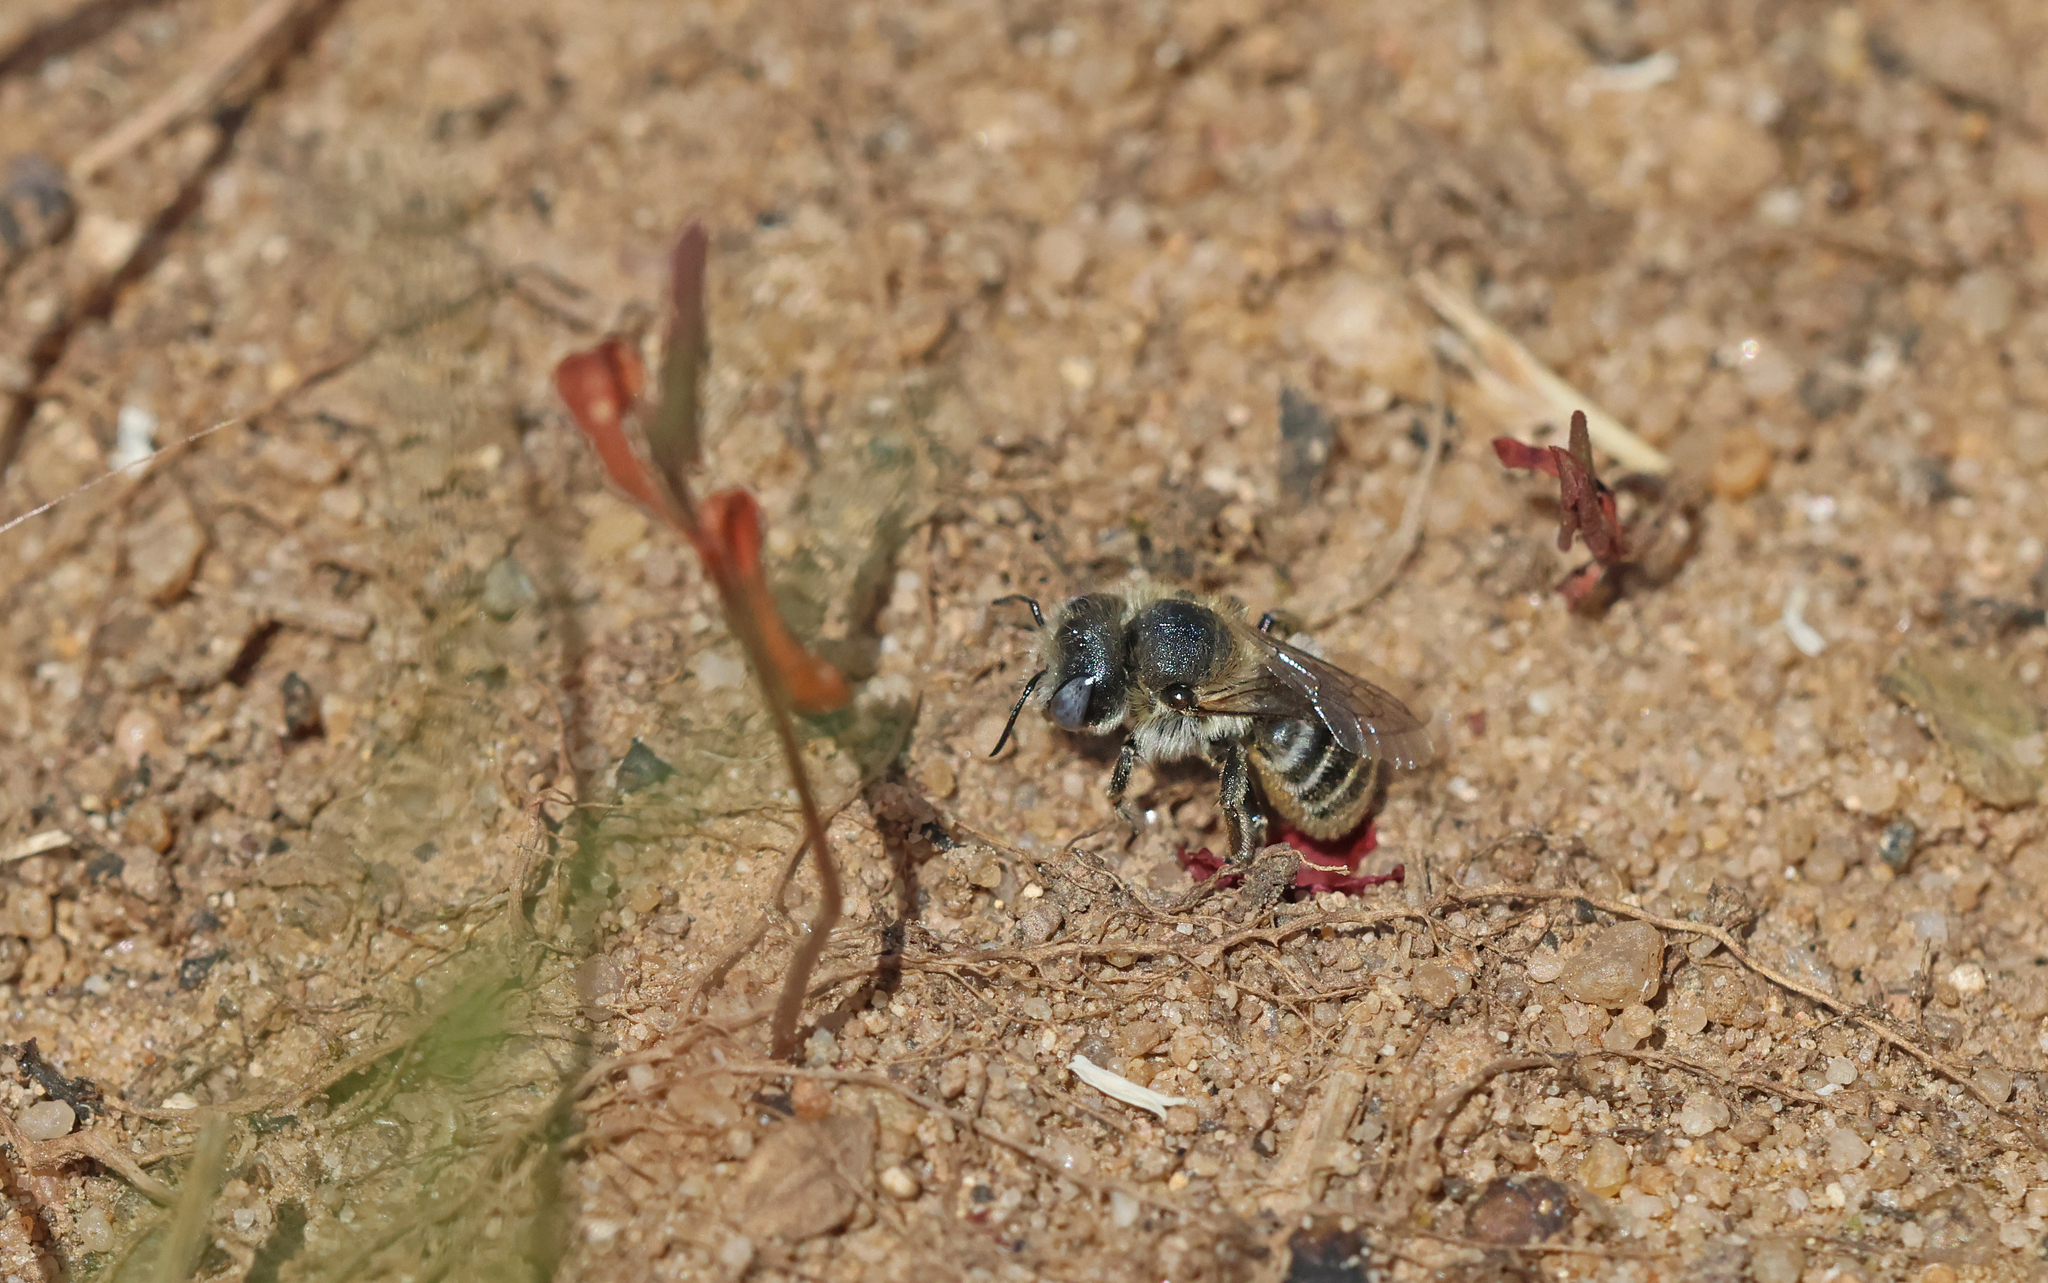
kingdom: Animalia
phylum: Arthropoda
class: Insecta
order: Hymenoptera
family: Megachilidae
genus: Hoplitis
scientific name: Hoplitis papaveris
